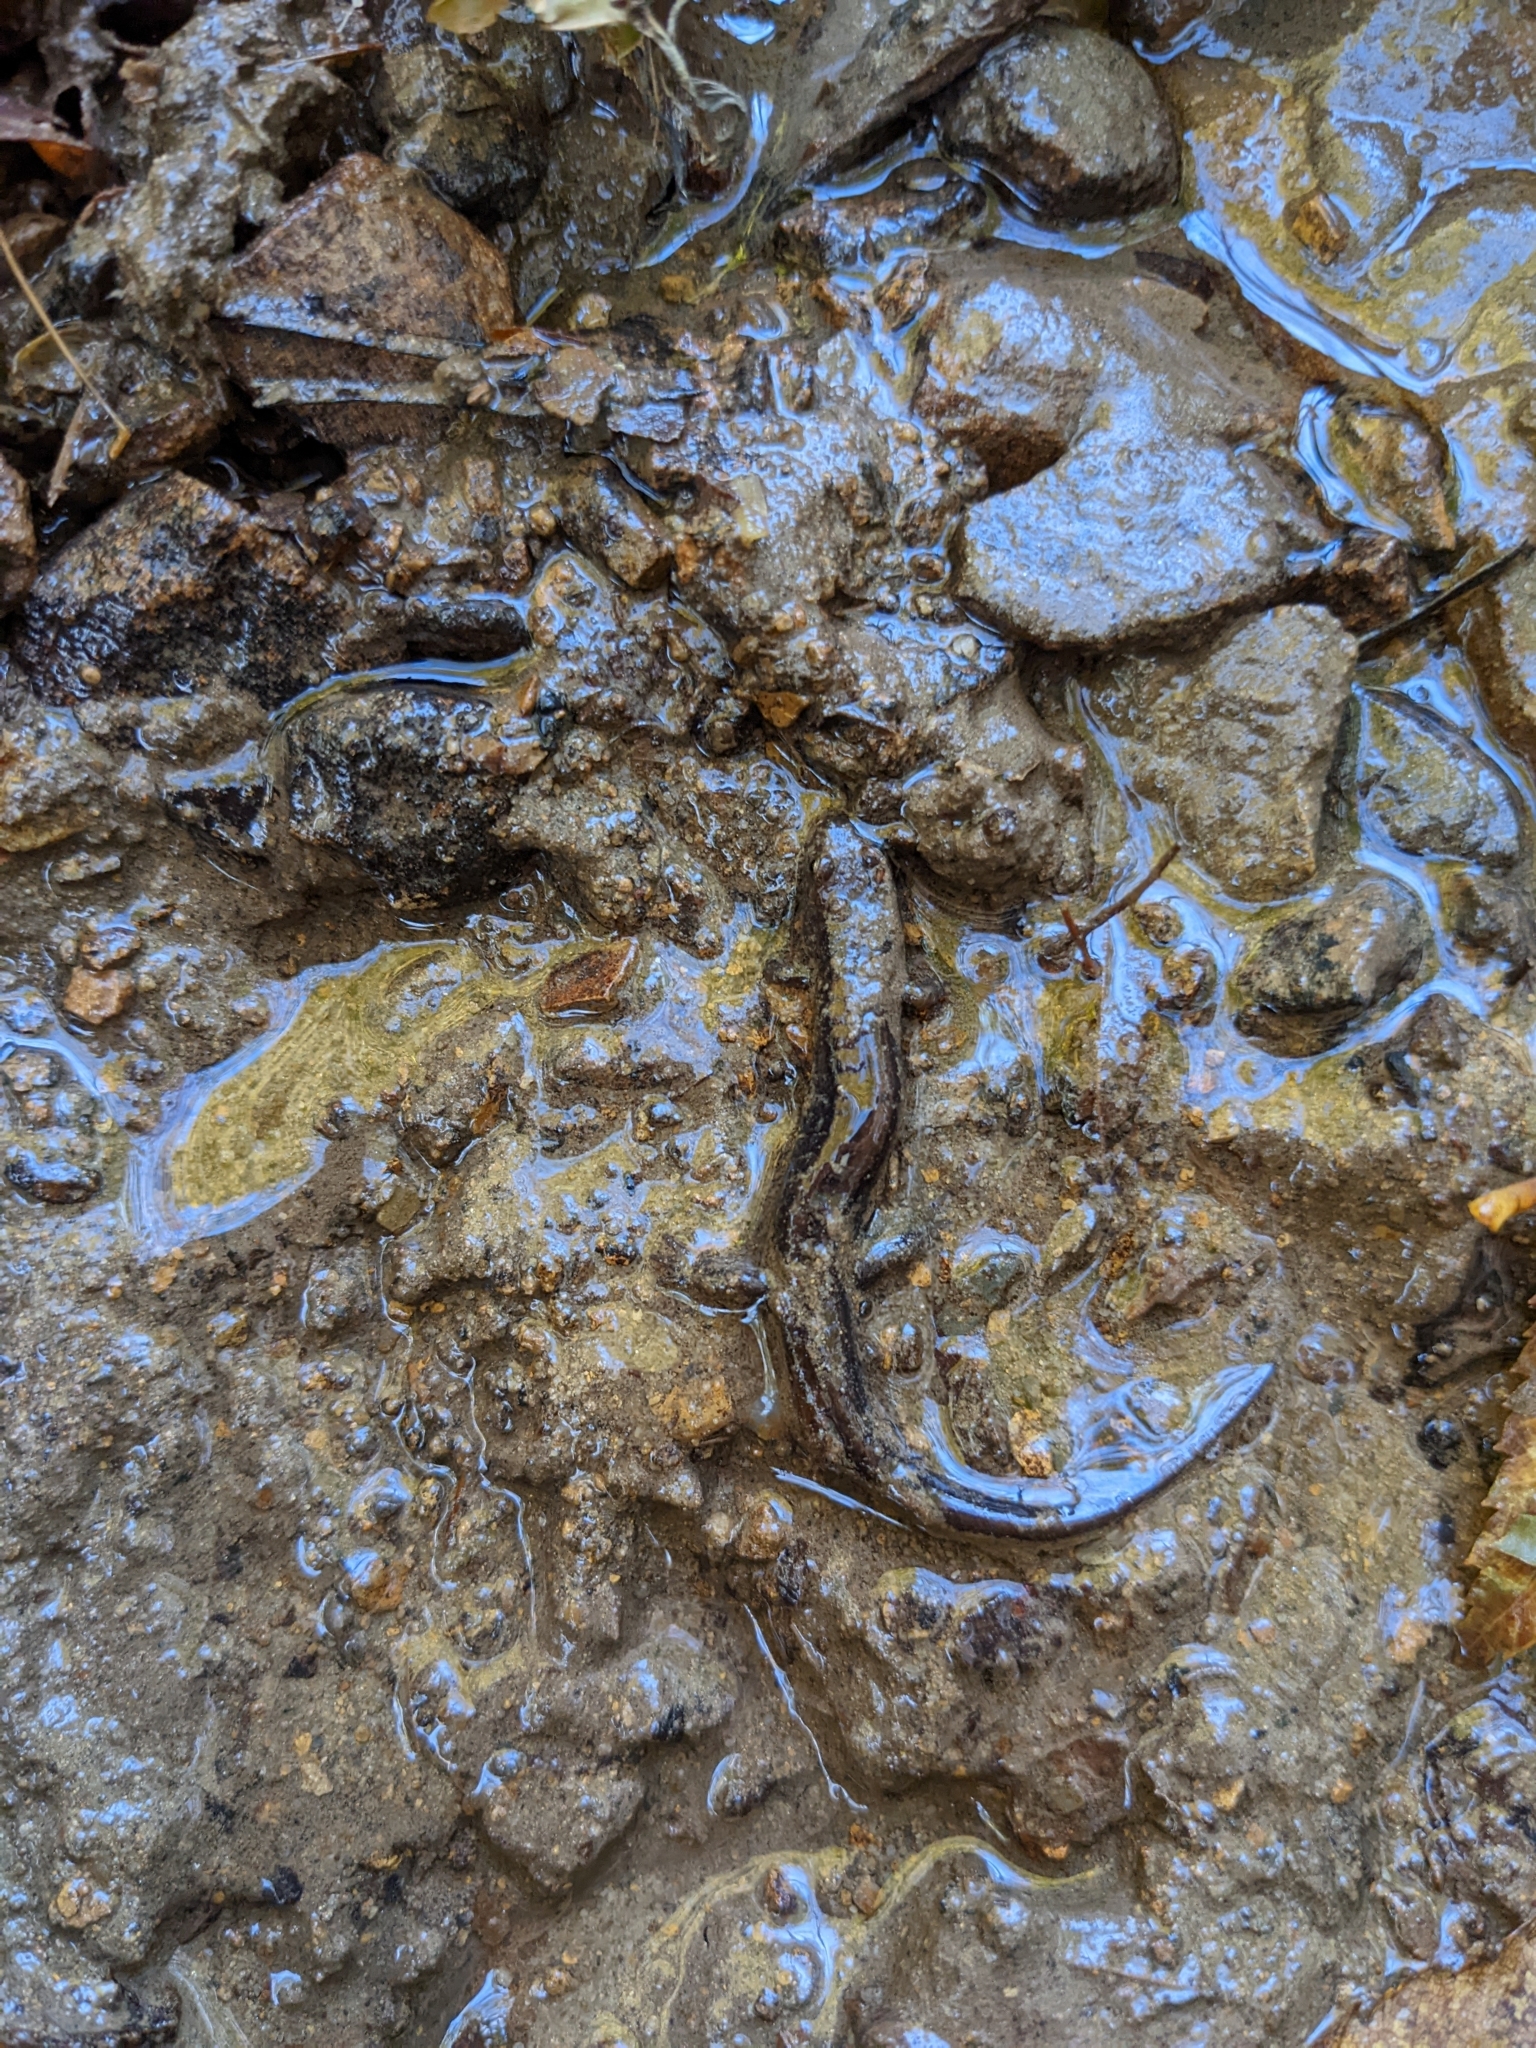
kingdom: Animalia
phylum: Chordata
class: Amphibia
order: Caudata
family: Plethodontidae
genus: Desmognathus
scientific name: Desmognathus ochrophaeus
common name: Allegheny mountain dusky salamander
